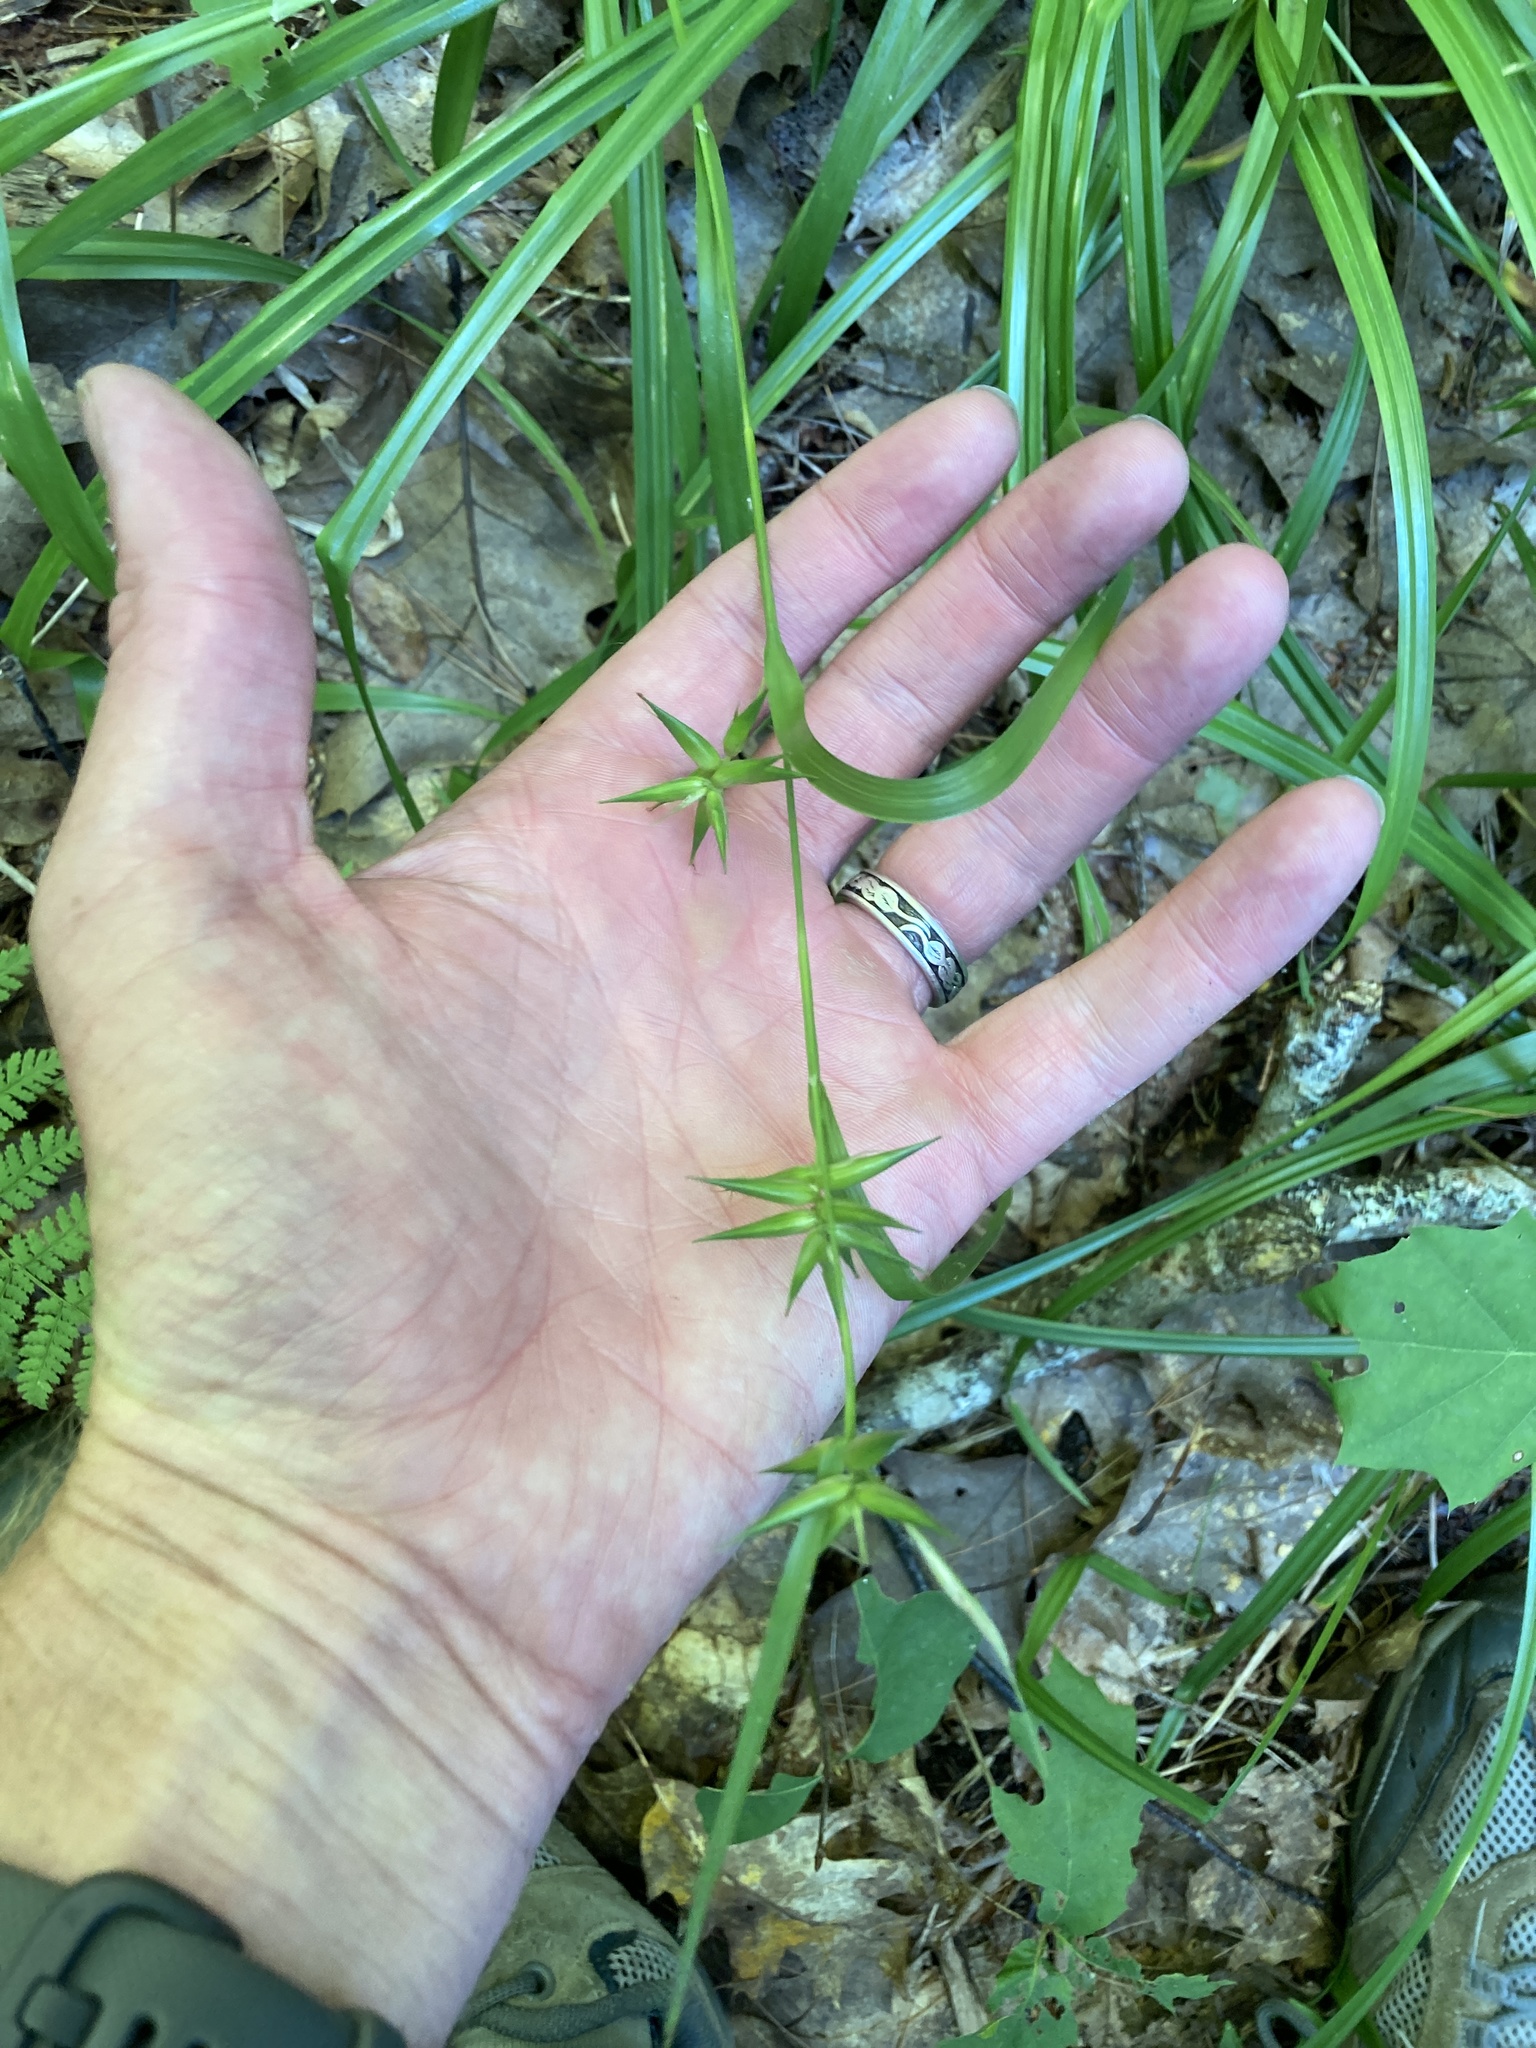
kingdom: Plantae
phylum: Tracheophyta
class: Liliopsida
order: Poales
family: Cyperaceae
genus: Carex
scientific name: Carex folliculata
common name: Northern long sedge
